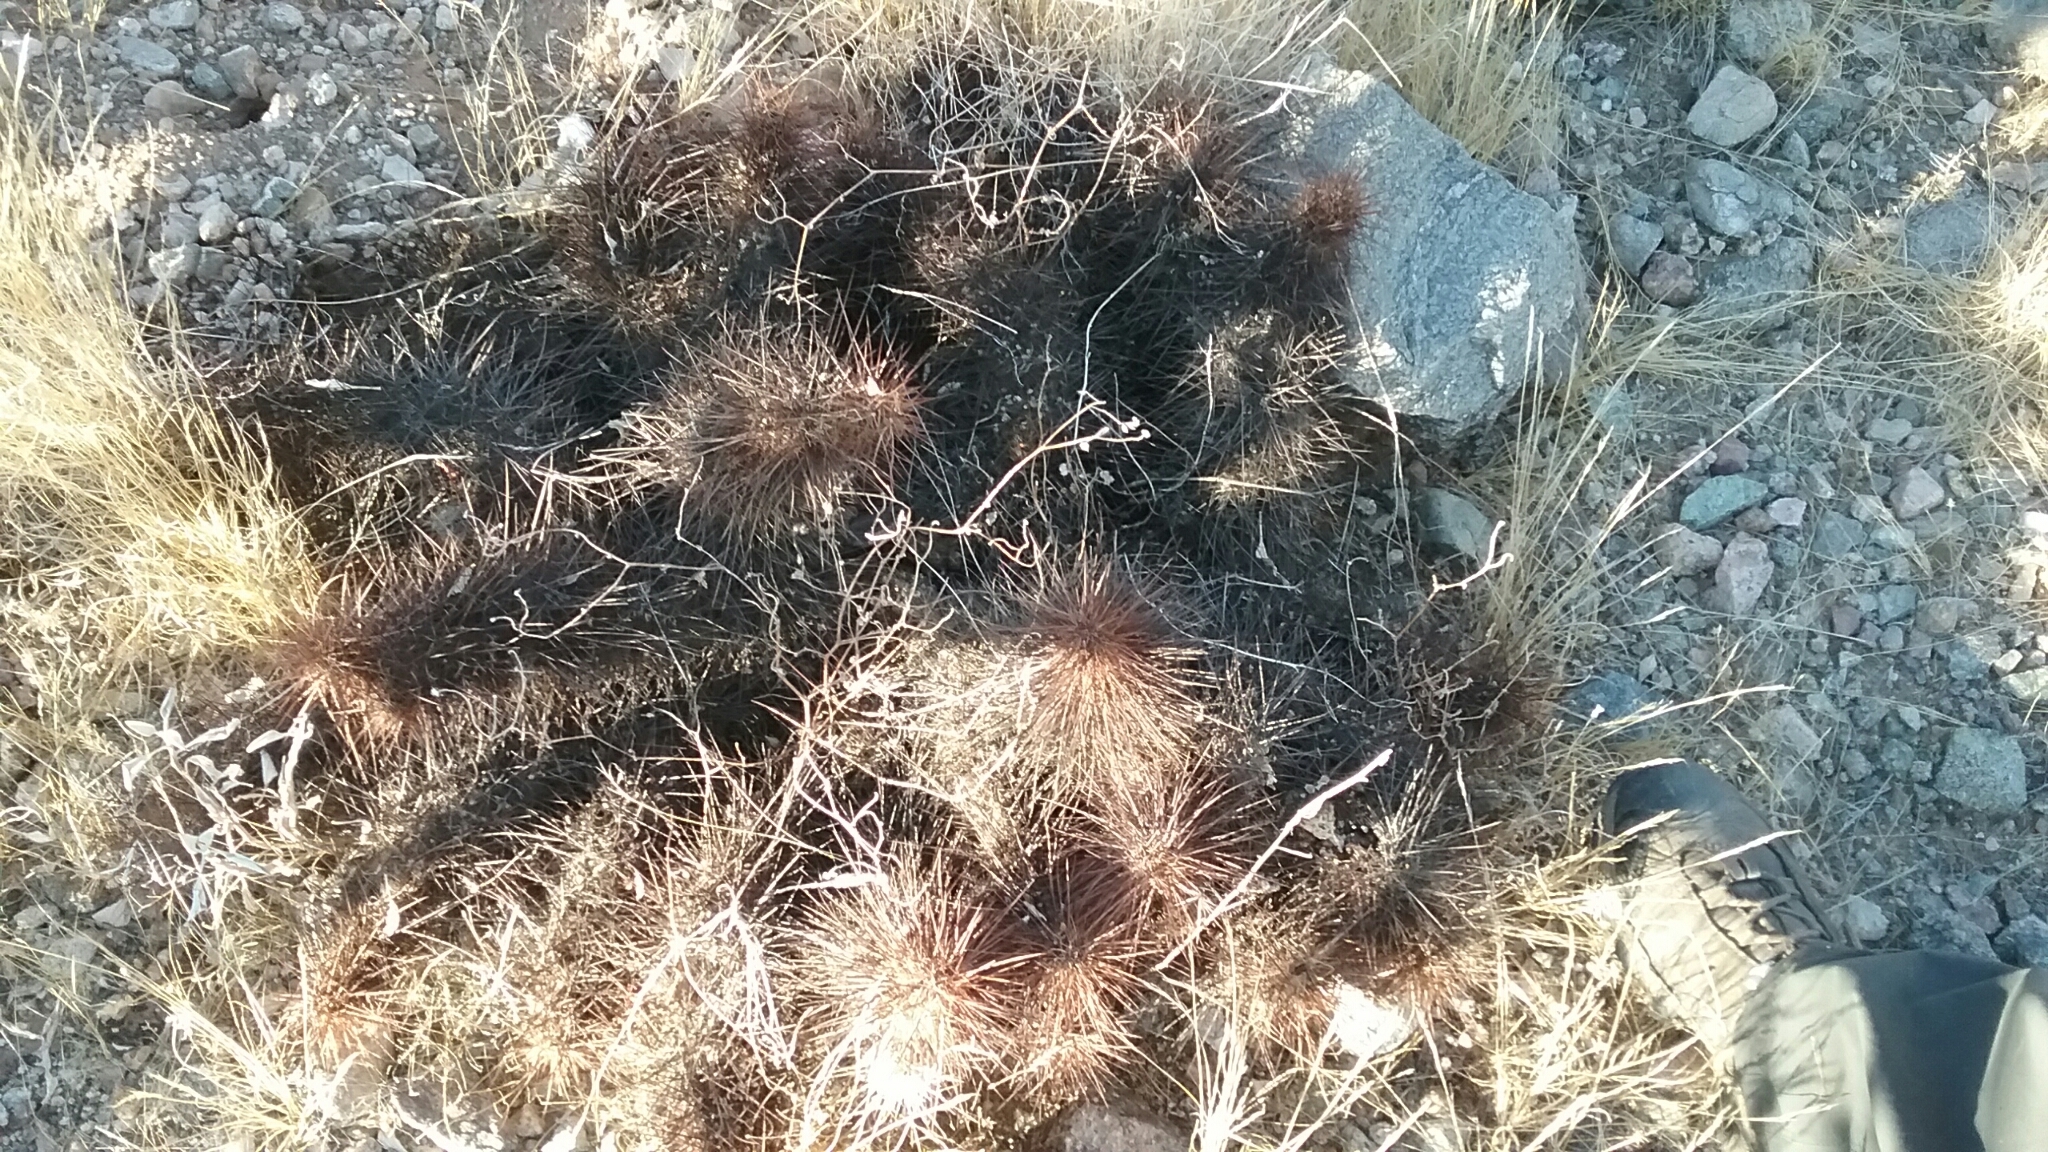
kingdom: Plantae
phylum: Tracheophyta
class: Magnoliopsida
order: Caryophyllales
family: Cactaceae
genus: Echinocereus
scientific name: Echinocereus engelmannii
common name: Engelmann's hedgehog cactus
